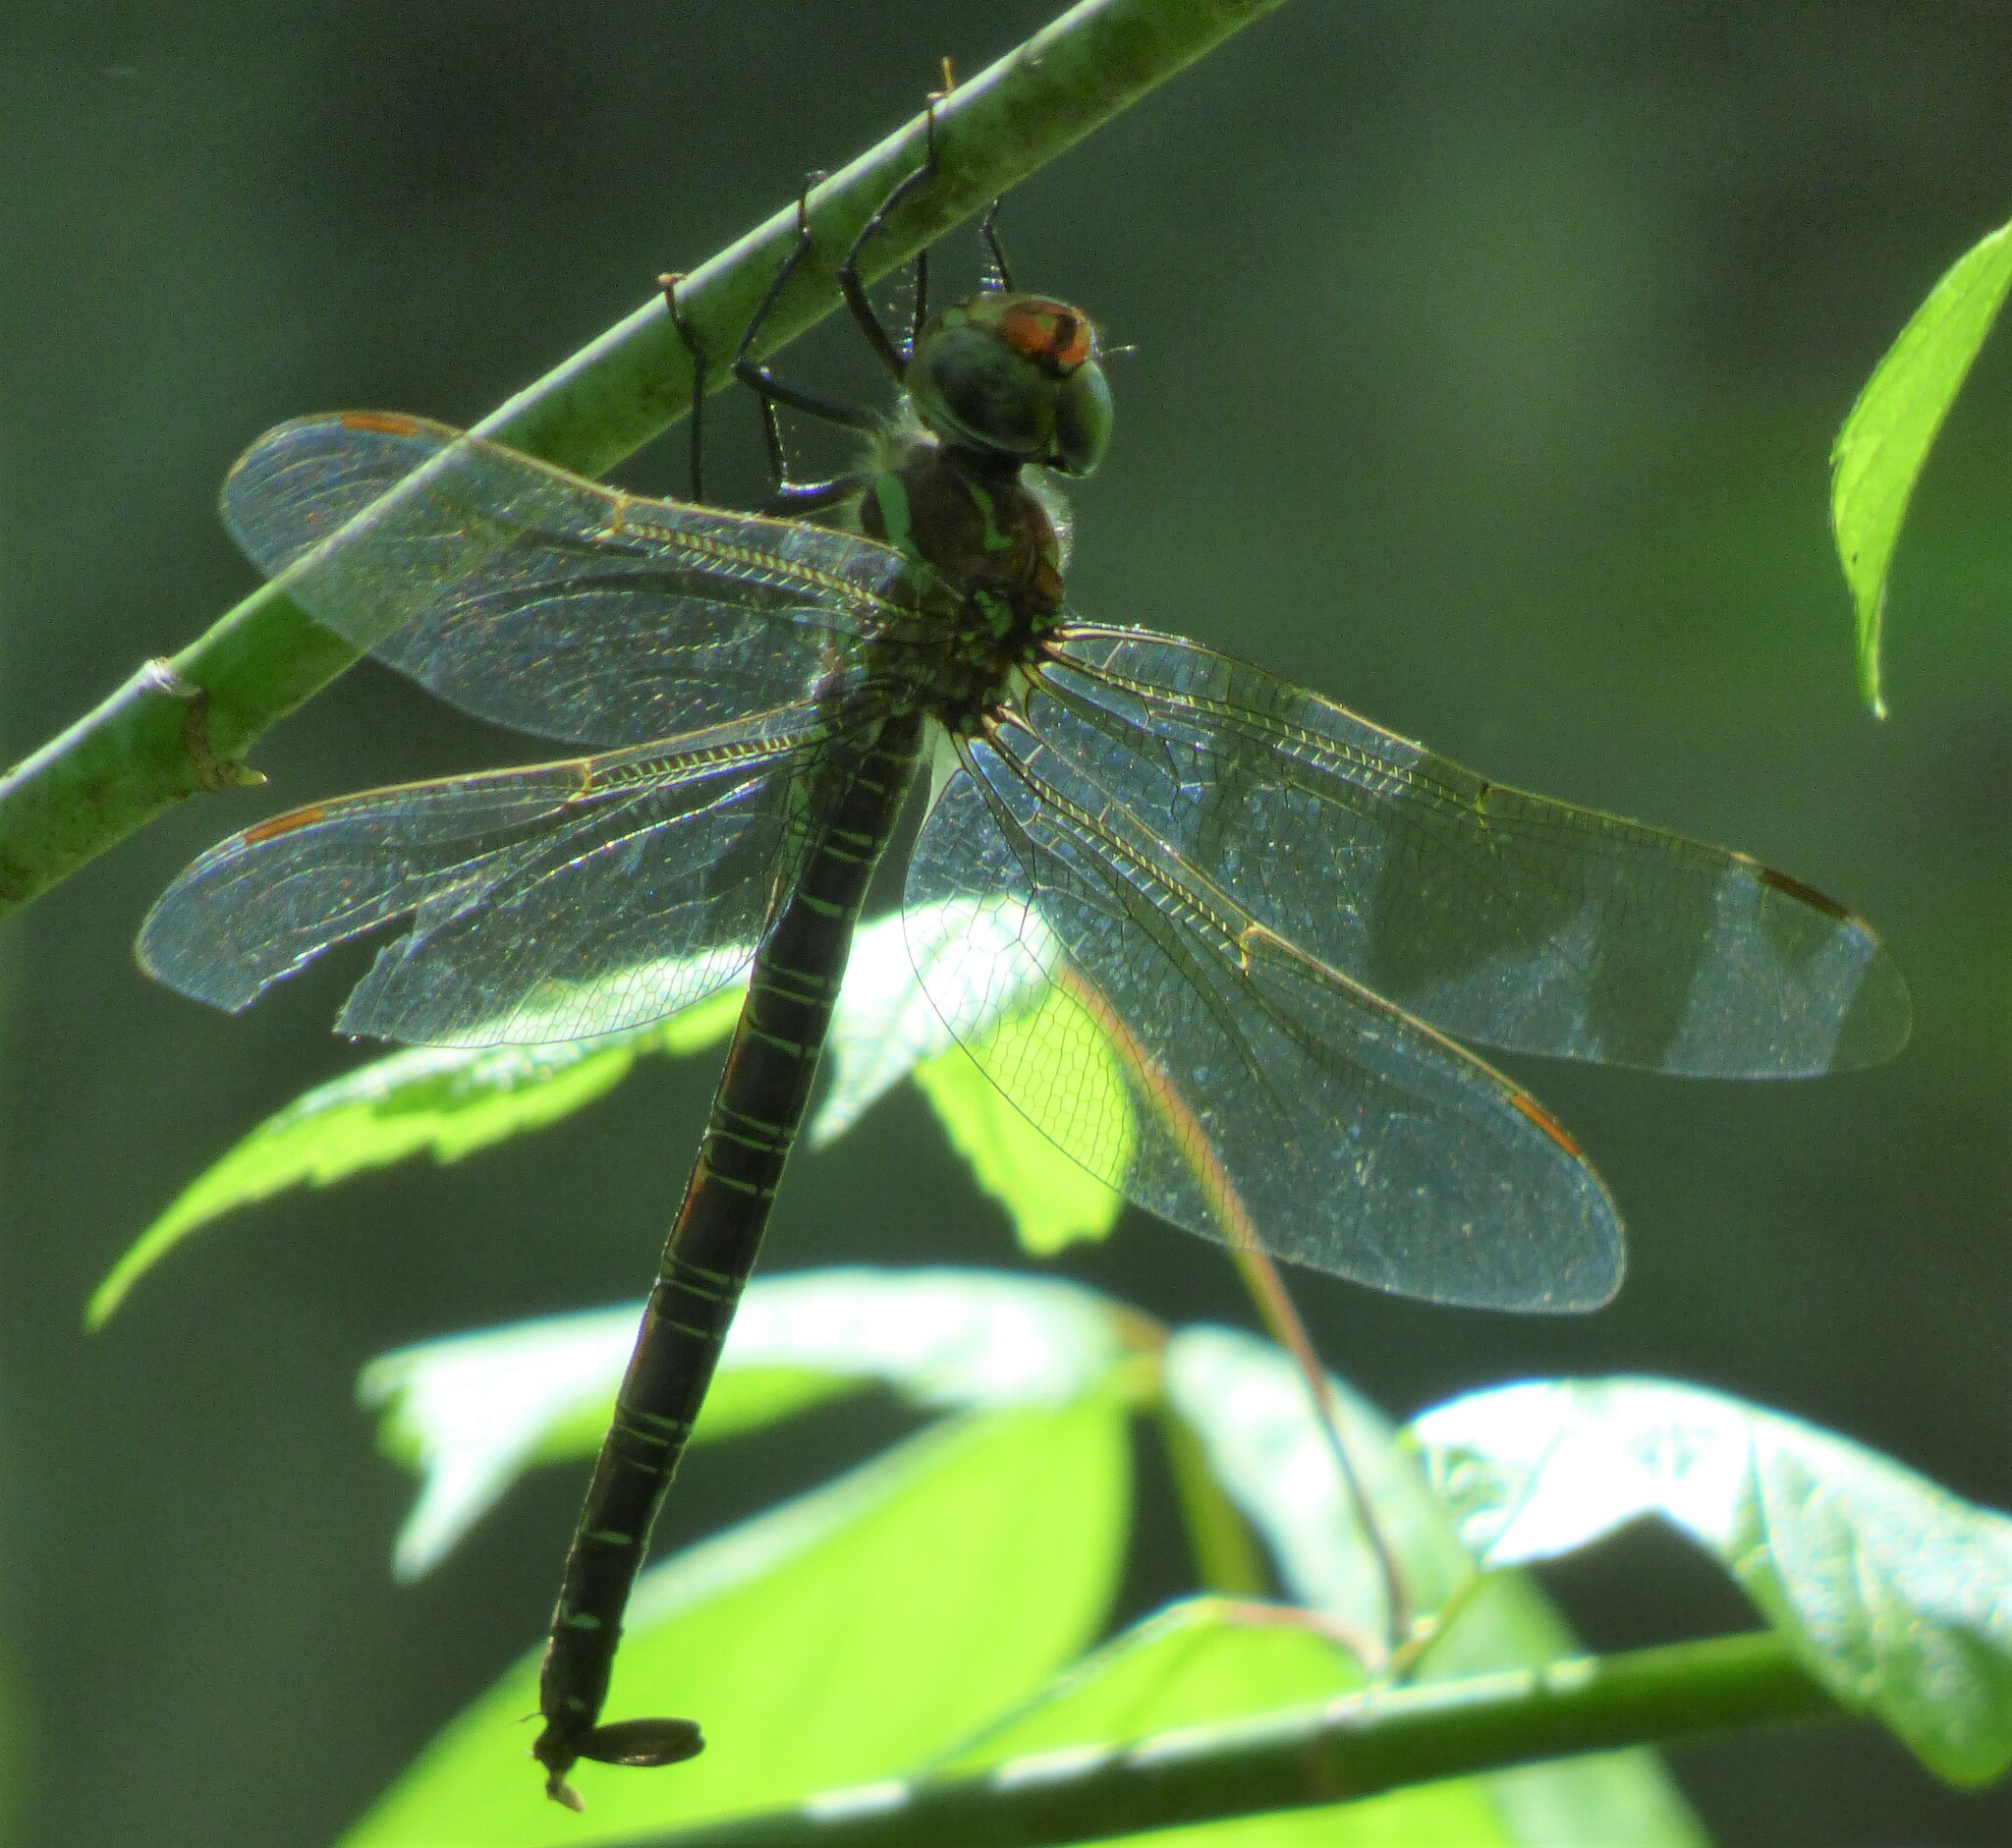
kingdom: Animalia
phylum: Arthropoda
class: Insecta
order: Odonata
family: Aeshnidae
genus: Epiaeschna
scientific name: Epiaeschna heros
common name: Swamp darner
